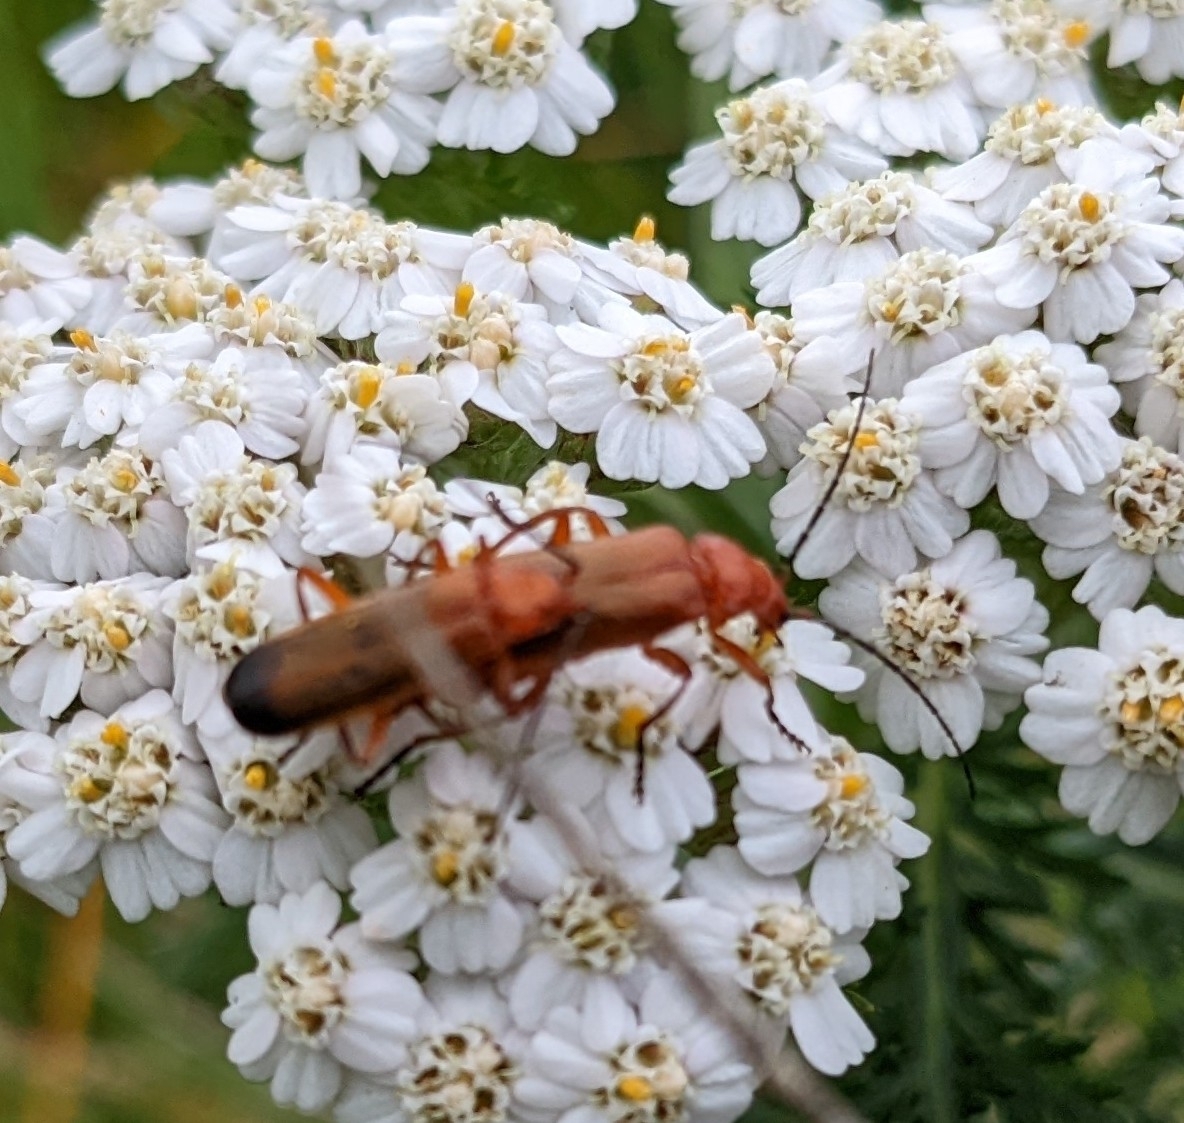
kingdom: Animalia
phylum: Arthropoda
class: Insecta
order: Coleoptera
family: Cantharidae
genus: Rhagonycha
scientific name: Rhagonycha fulva
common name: Common red soldier beetle
